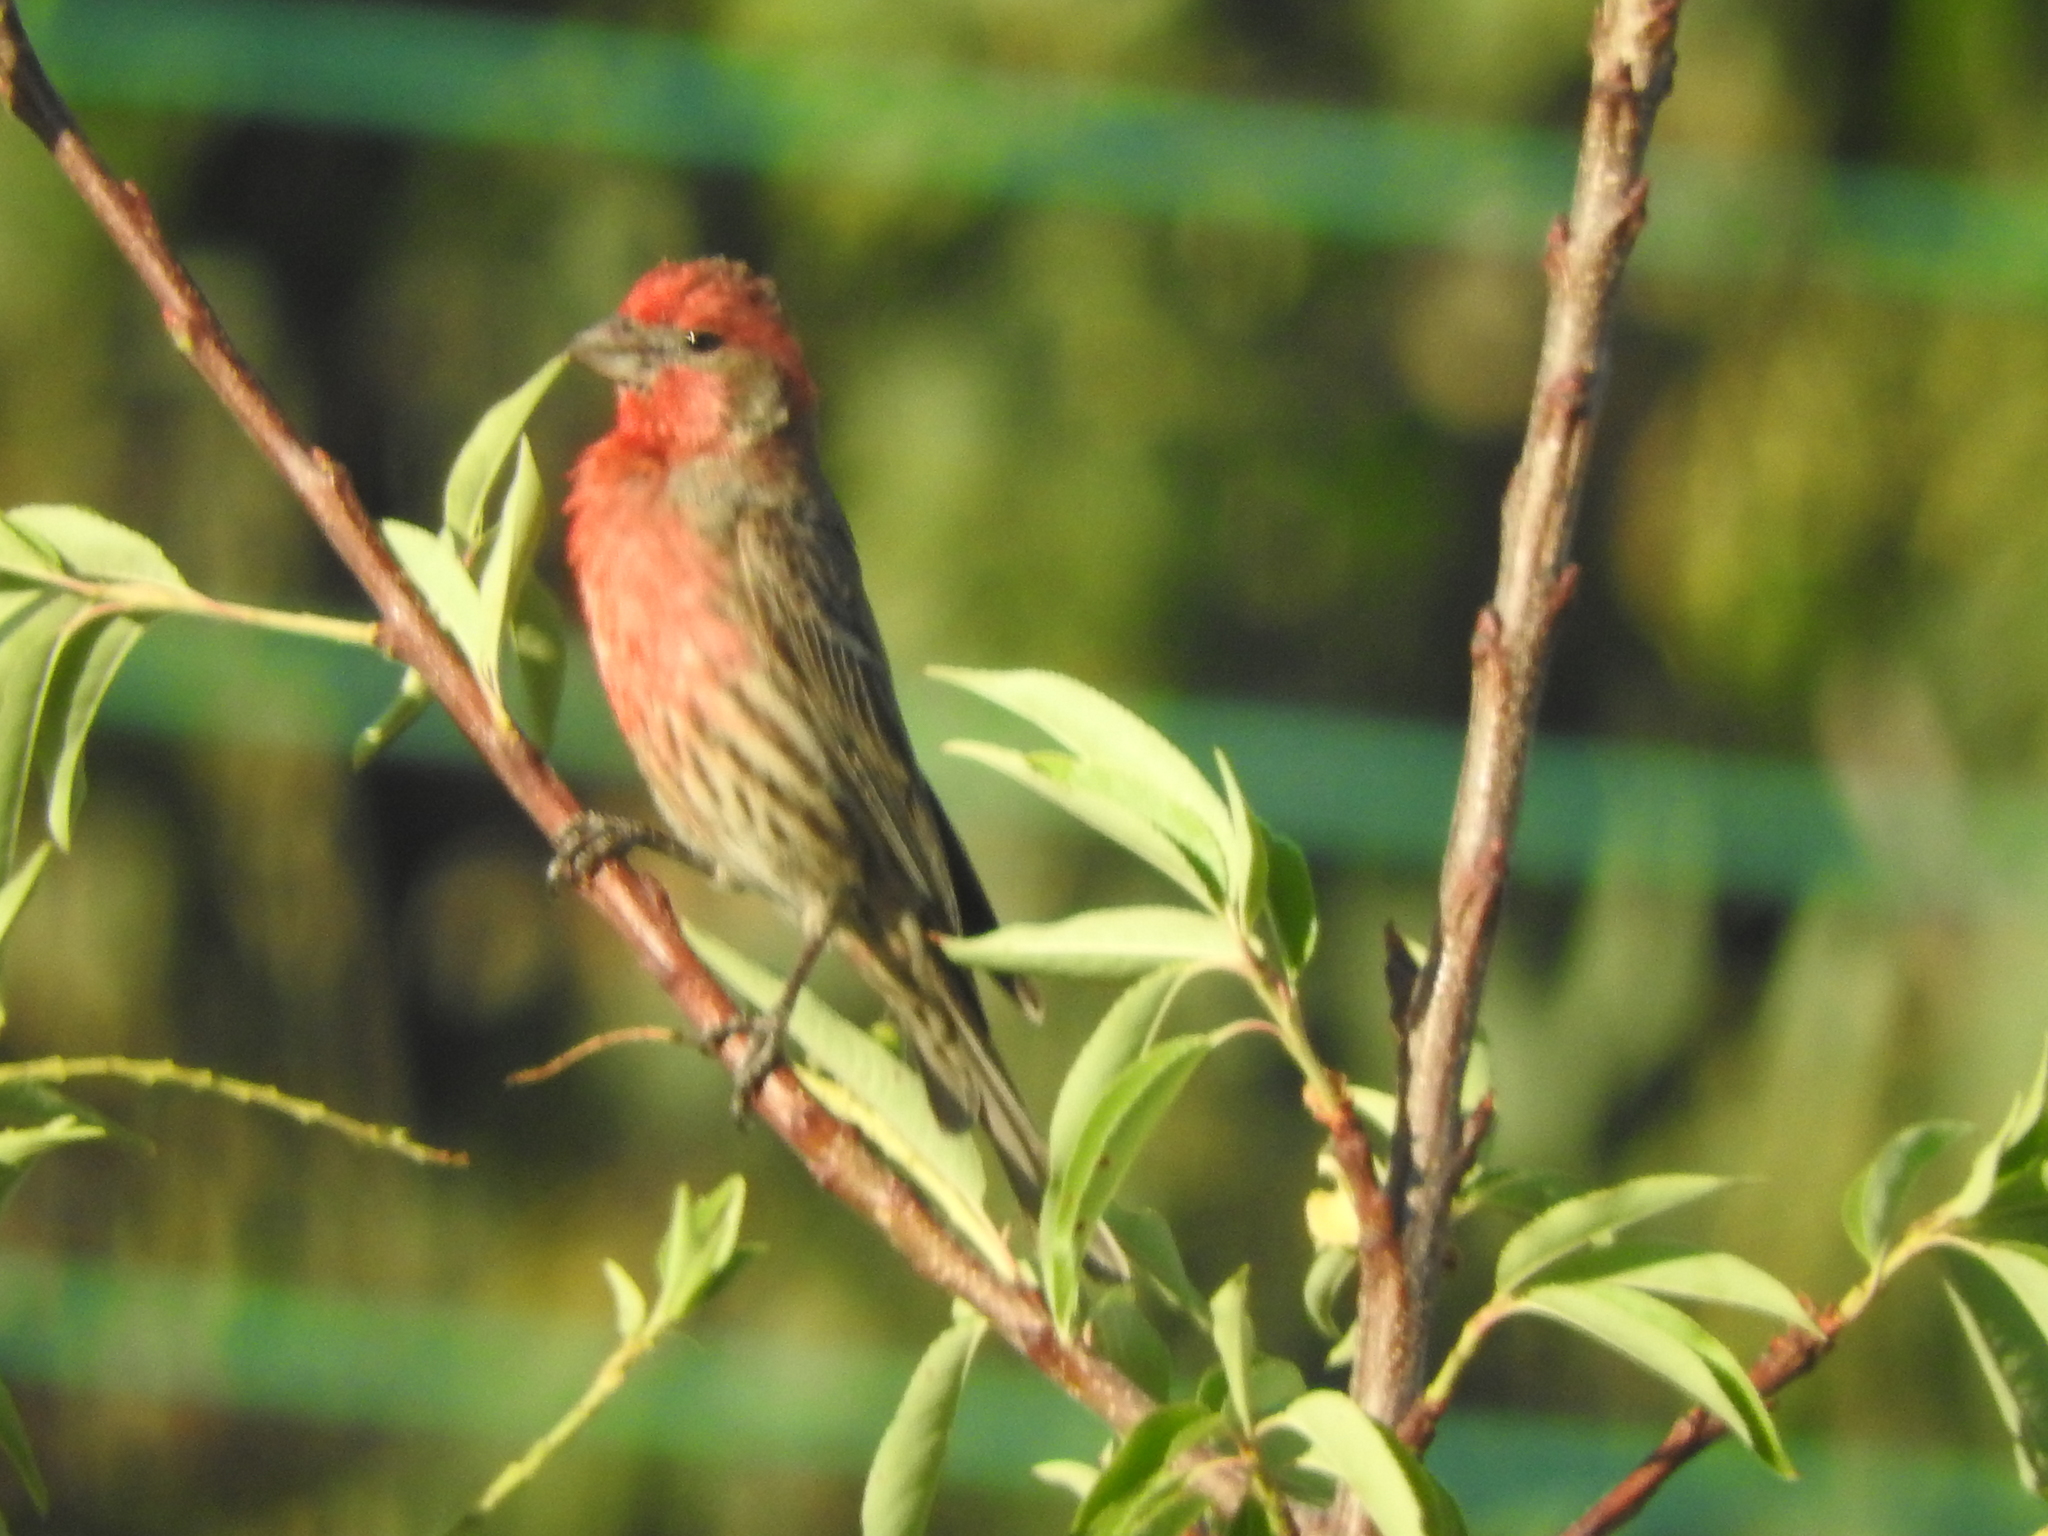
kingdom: Animalia
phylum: Chordata
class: Aves
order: Passeriformes
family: Fringillidae
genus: Haemorhous
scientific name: Haemorhous mexicanus
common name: House finch
